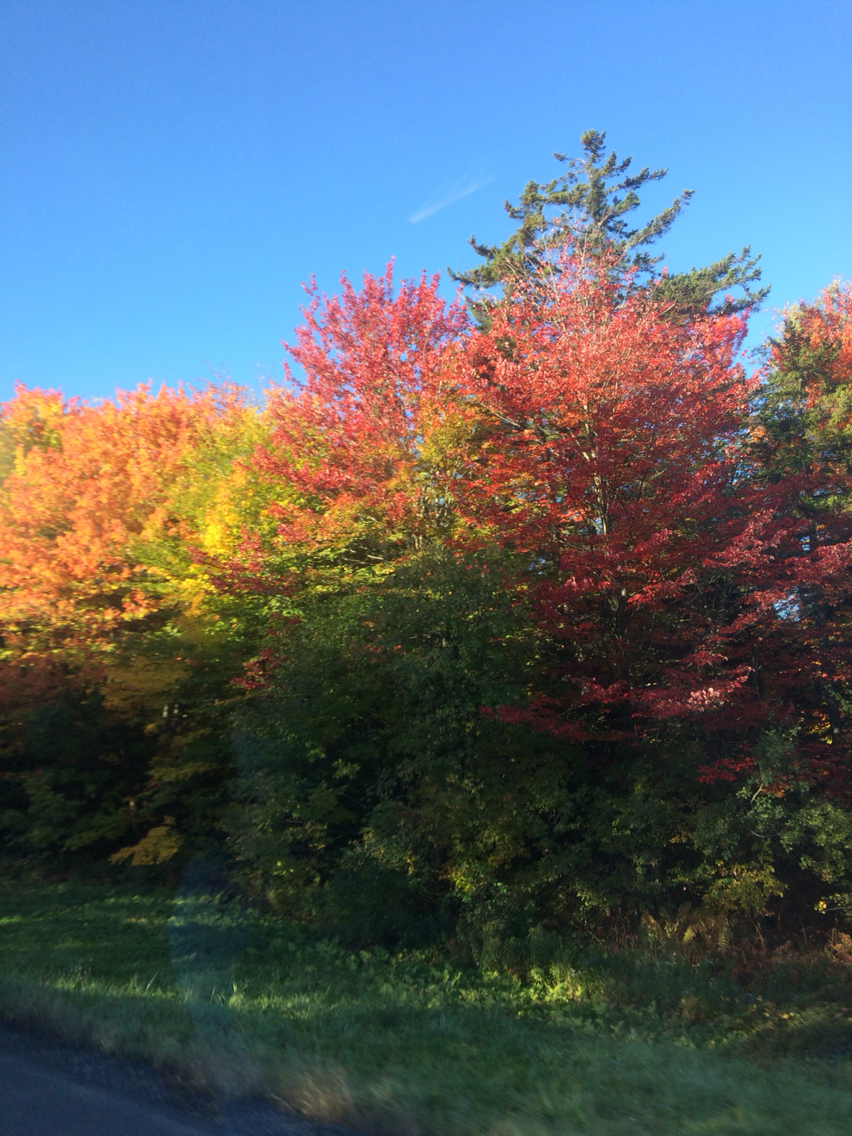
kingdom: Plantae
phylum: Tracheophyta
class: Magnoliopsida
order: Sapindales
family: Sapindaceae
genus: Acer
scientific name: Acer rubrum
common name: Red maple
